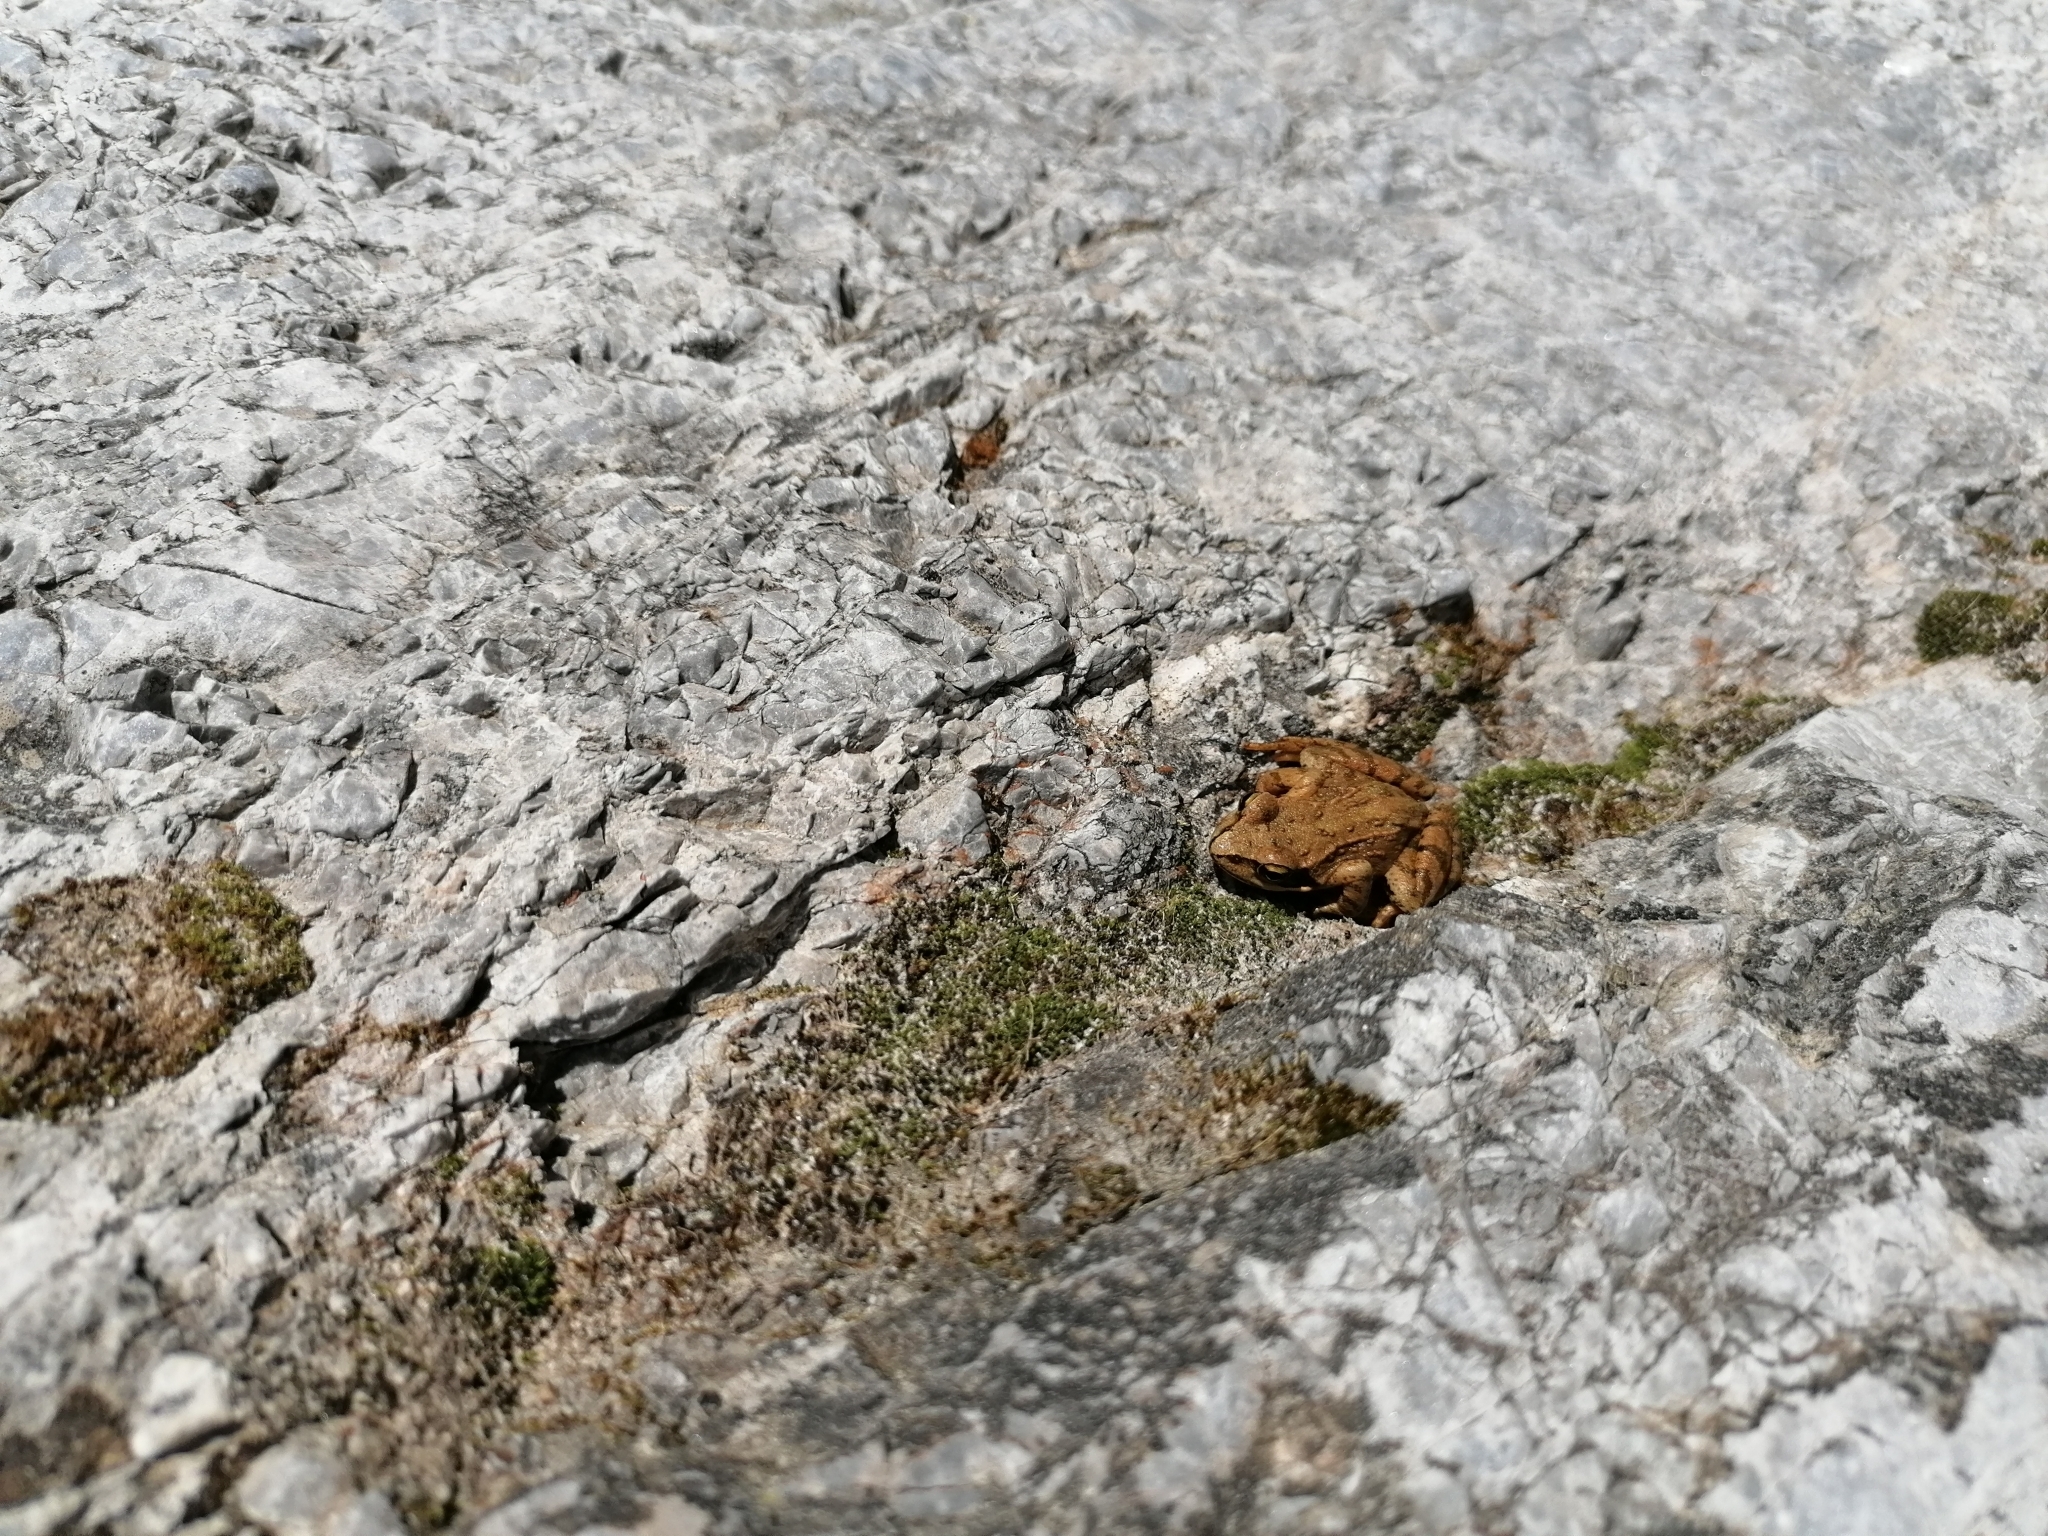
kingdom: Animalia
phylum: Chordata
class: Amphibia
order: Anura
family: Ranidae
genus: Rana
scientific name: Rana temporaria
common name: Common frog
